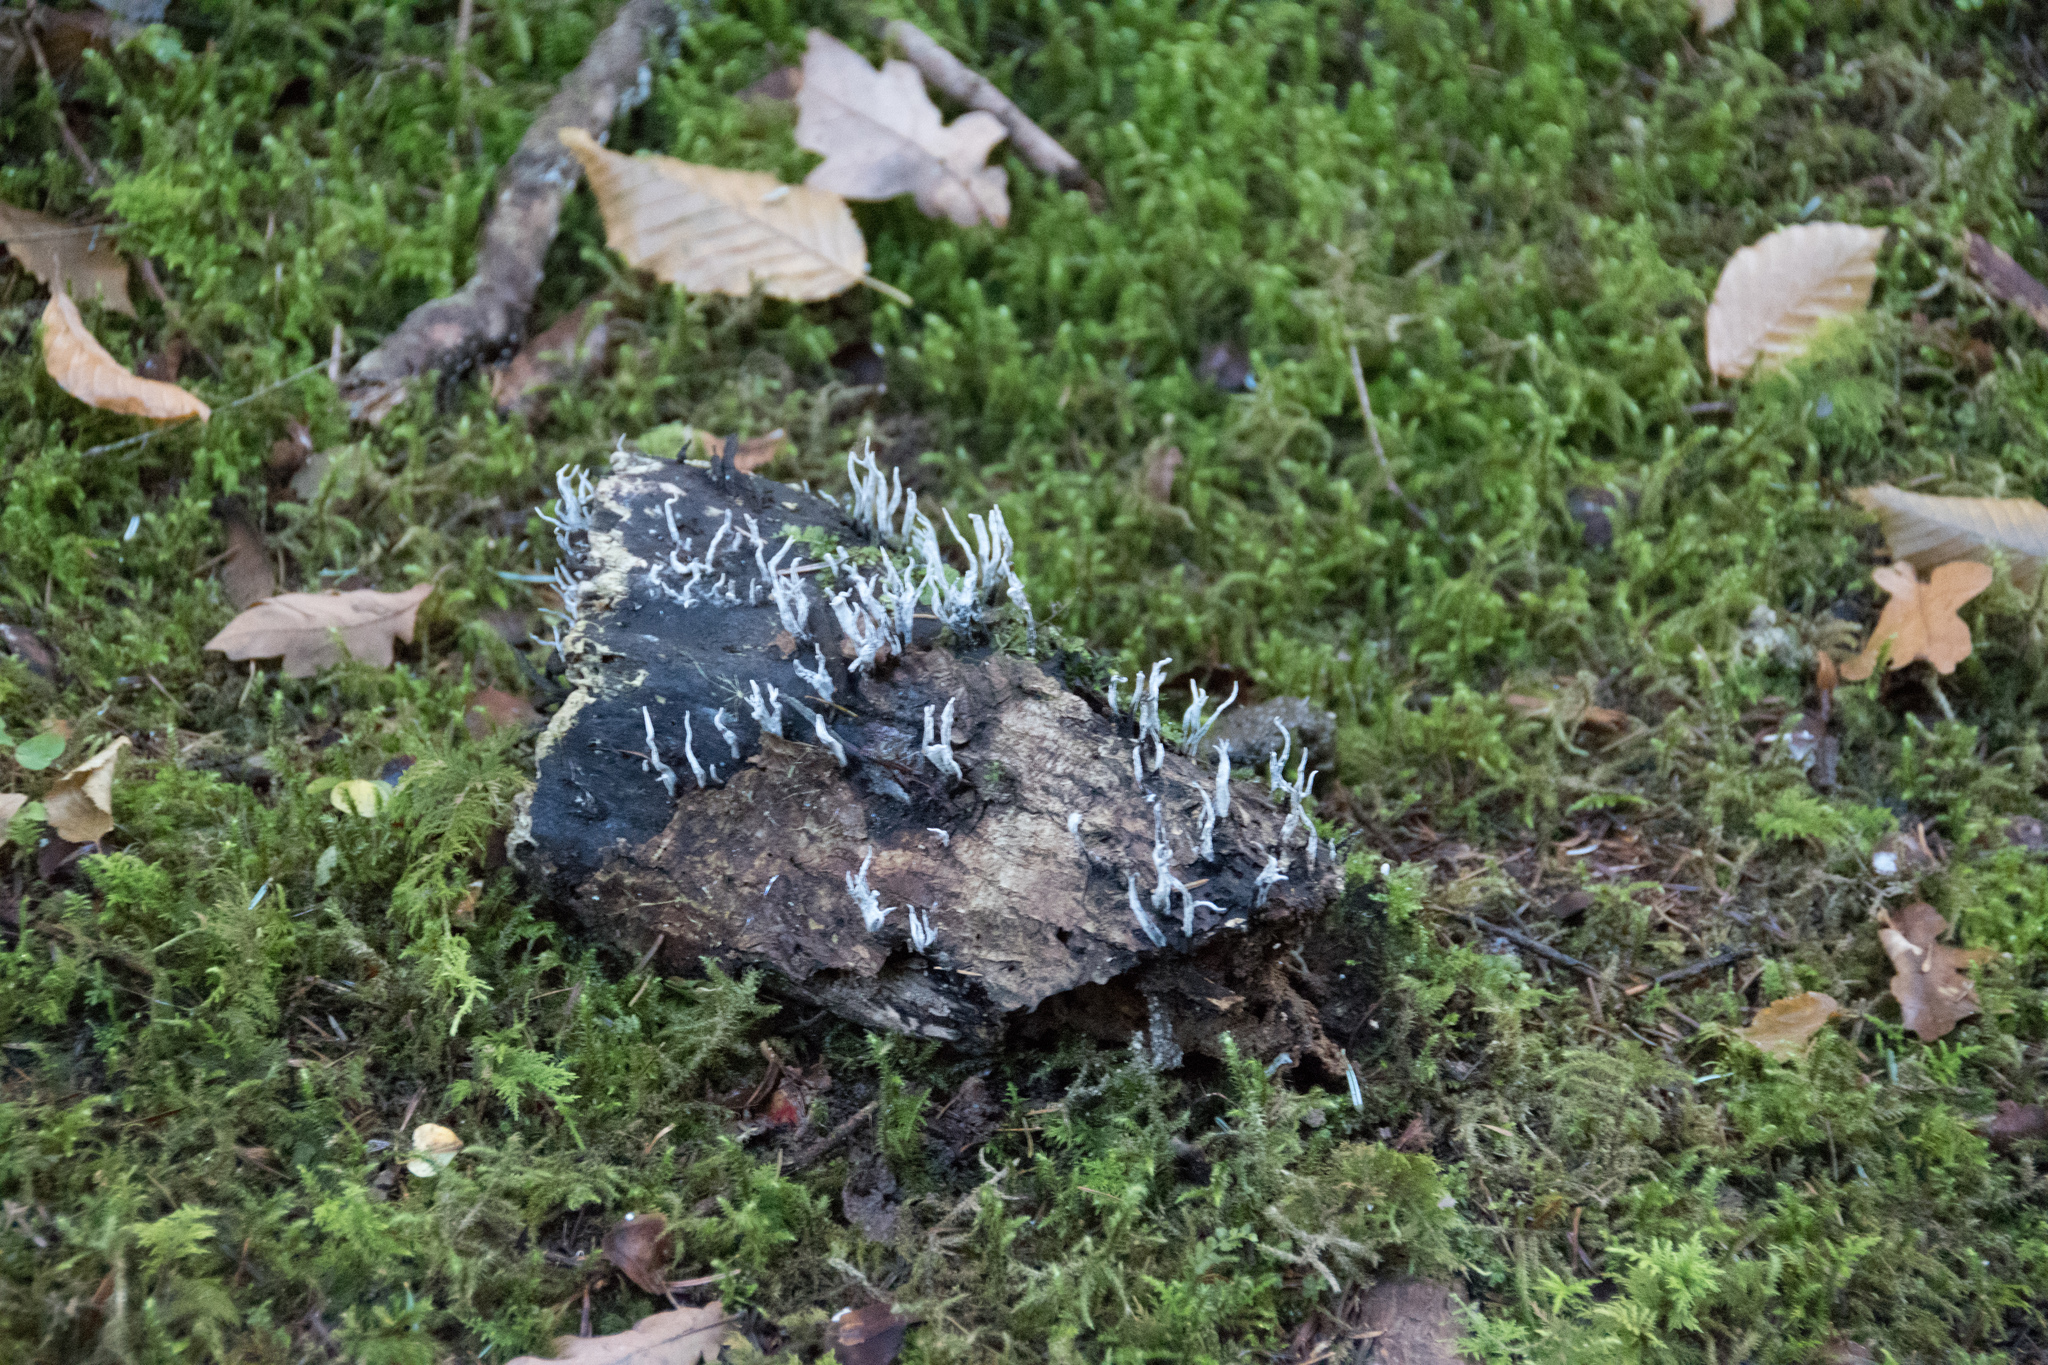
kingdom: Fungi
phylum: Ascomycota
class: Sordariomycetes
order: Xylariales
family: Xylariaceae
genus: Xylaria
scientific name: Xylaria hypoxylon
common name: Candle-snuff fungus
